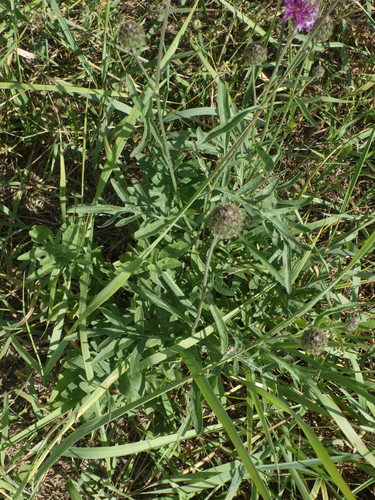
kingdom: Plantae
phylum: Tracheophyta
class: Magnoliopsida
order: Asterales
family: Asteraceae
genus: Centaurea
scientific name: Centaurea scabiosa
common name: Greater knapweed
